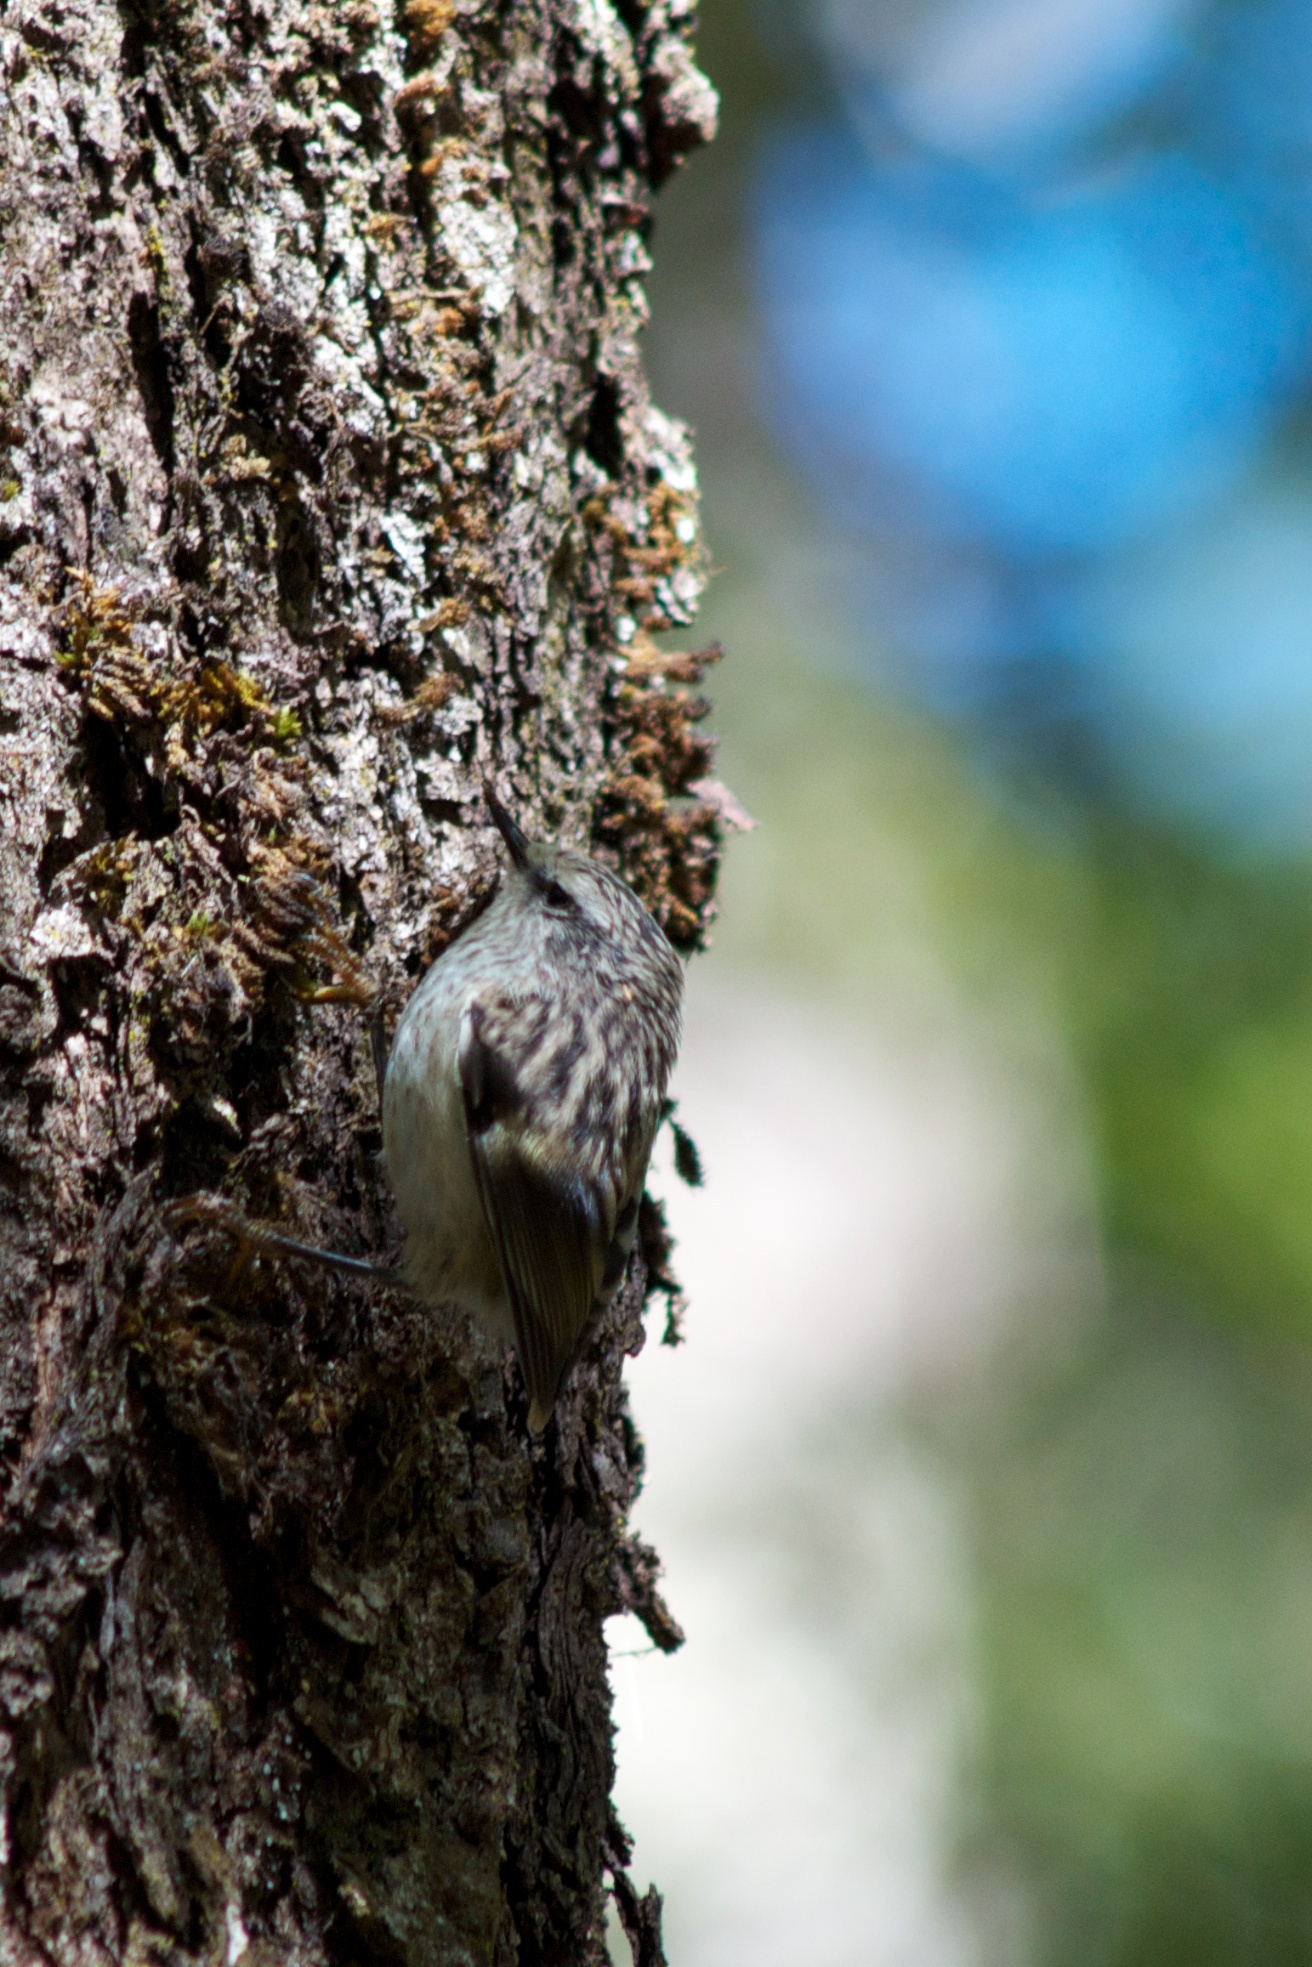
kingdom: Animalia
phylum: Chordata
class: Aves
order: Passeriformes
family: Acanthisittidae
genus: Acanthisitta
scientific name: Acanthisitta chloris
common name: Rifleman
